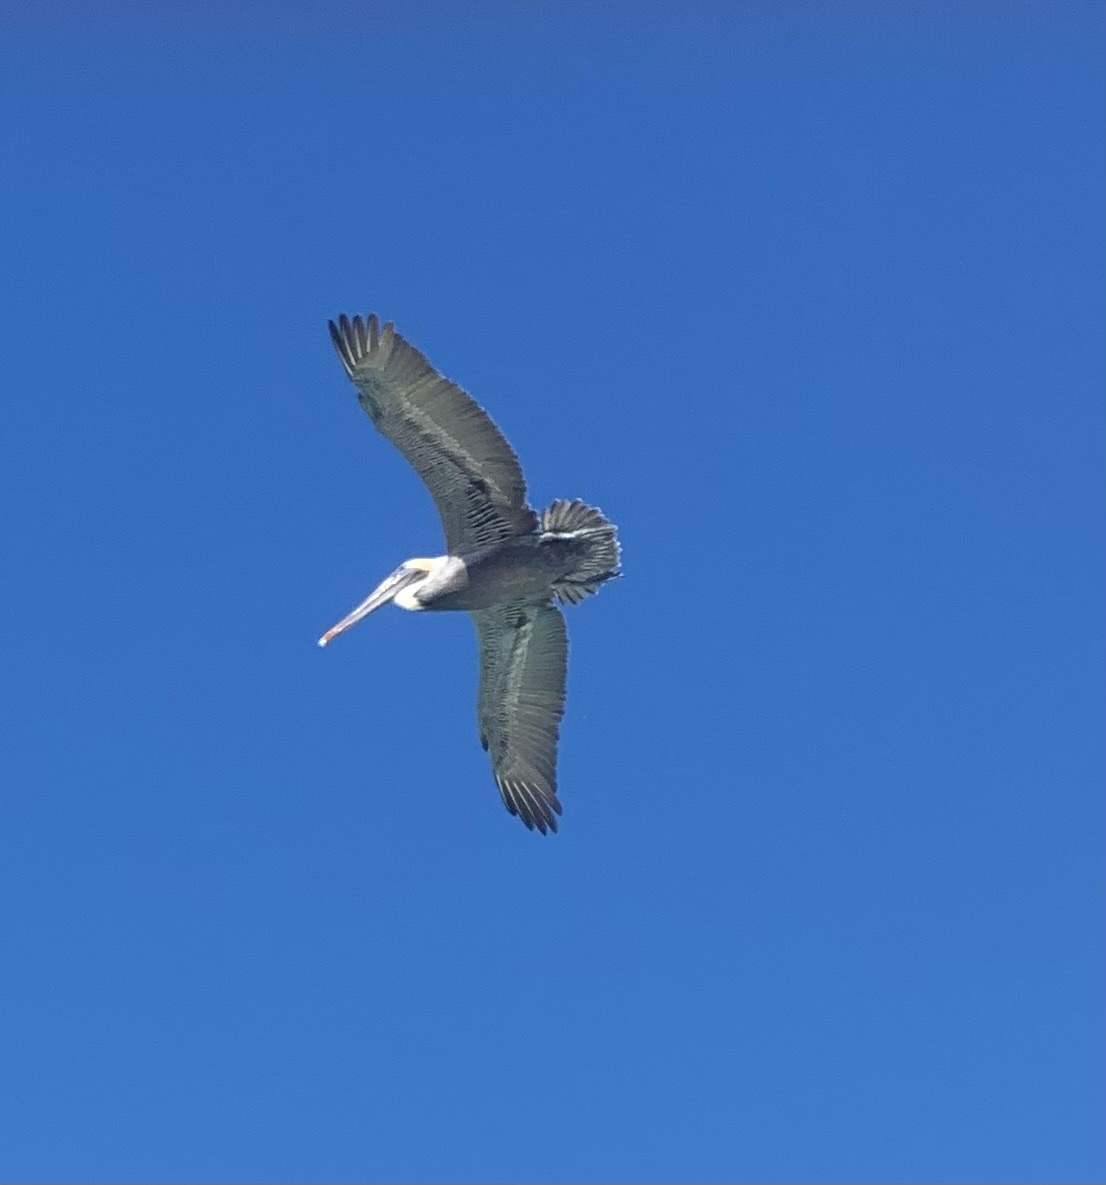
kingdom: Animalia
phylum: Chordata
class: Aves
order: Pelecaniformes
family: Pelecanidae
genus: Pelecanus
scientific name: Pelecanus occidentalis
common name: Brown pelican
